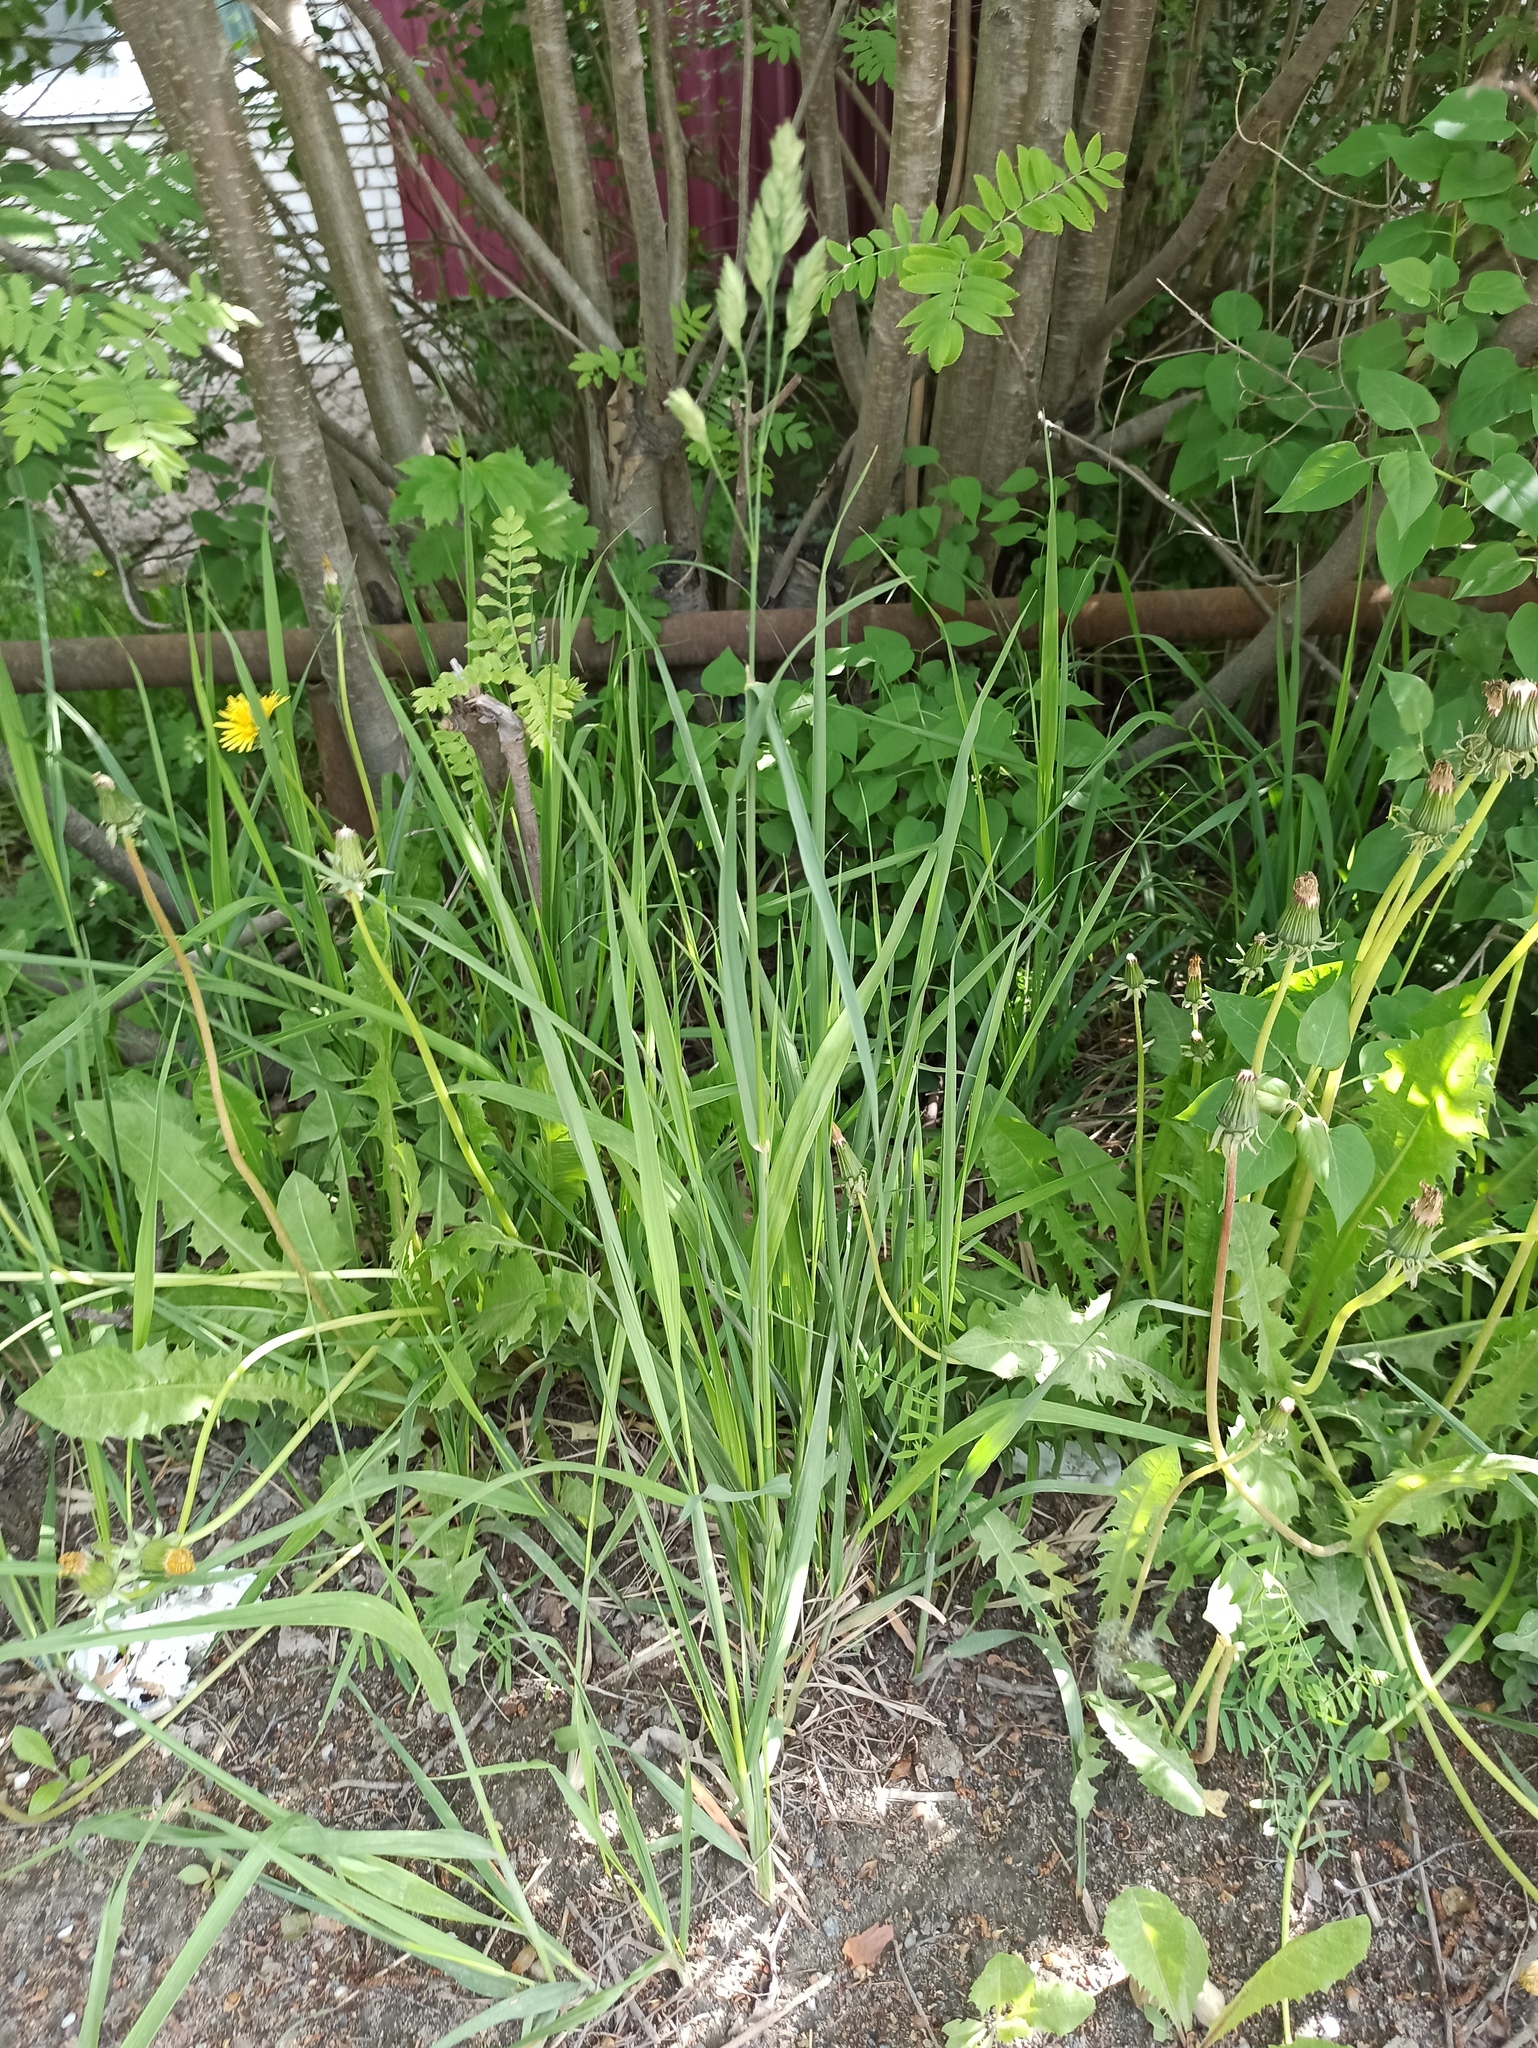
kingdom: Plantae
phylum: Tracheophyta
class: Liliopsida
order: Poales
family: Poaceae
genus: Dactylis
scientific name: Dactylis glomerata
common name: Orchardgrass
